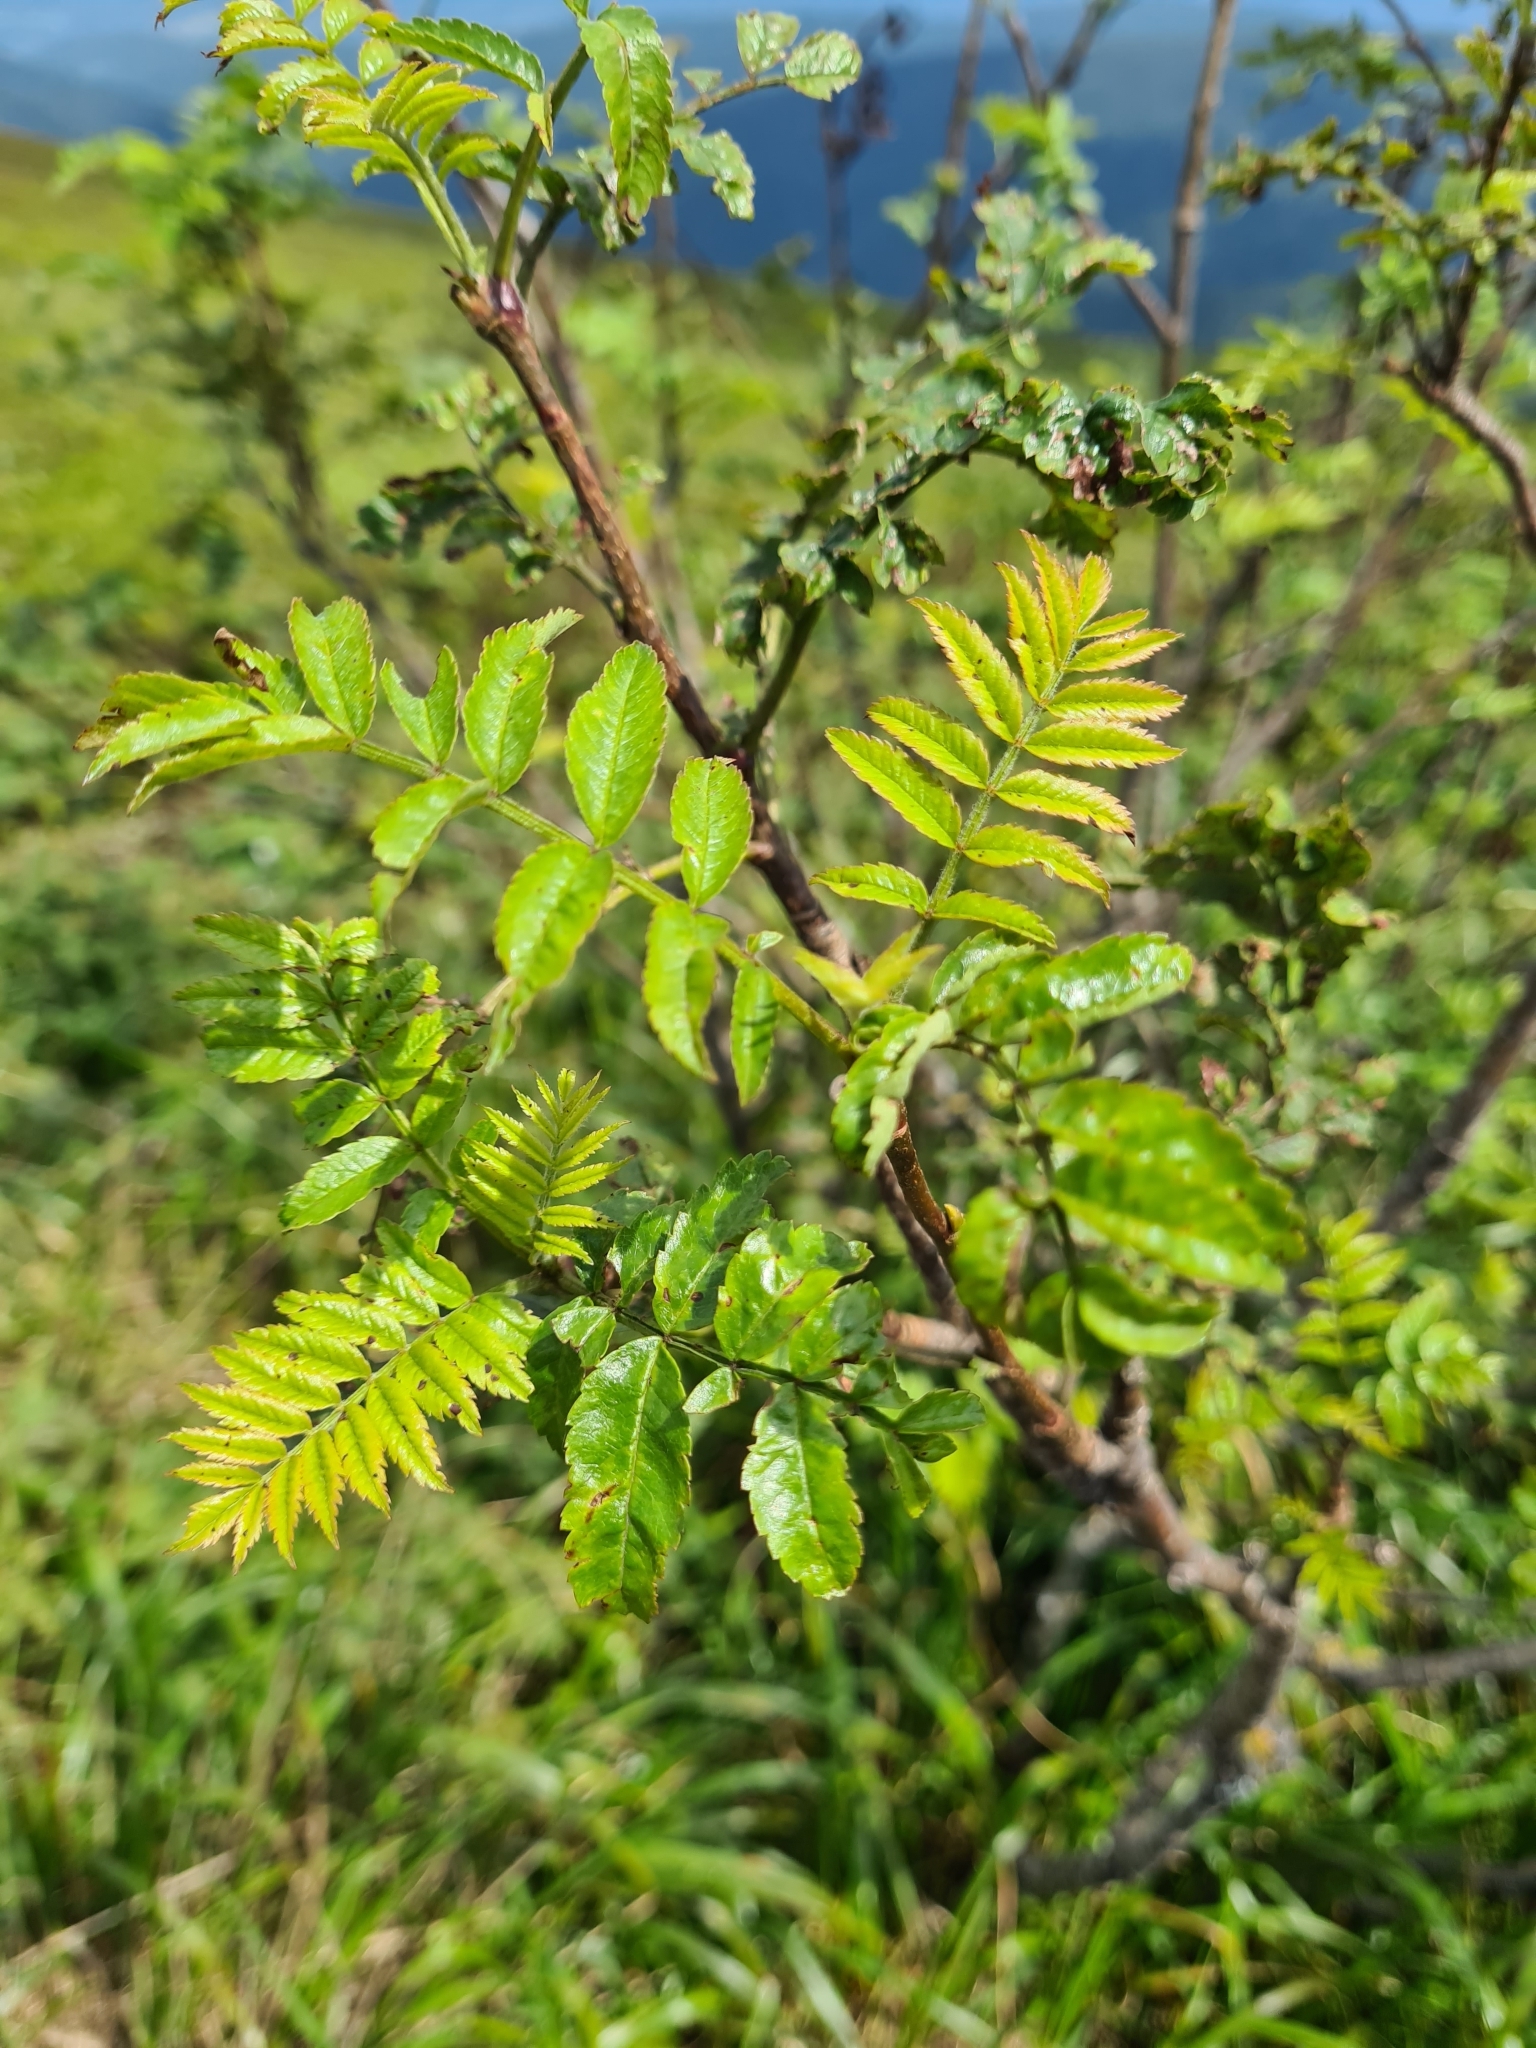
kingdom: Plantae
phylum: Tracheophyta
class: Magnoliopsida
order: Rosales
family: Rosaceae
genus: Sorbus
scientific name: Sorbus aucuparia
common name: Rowan
